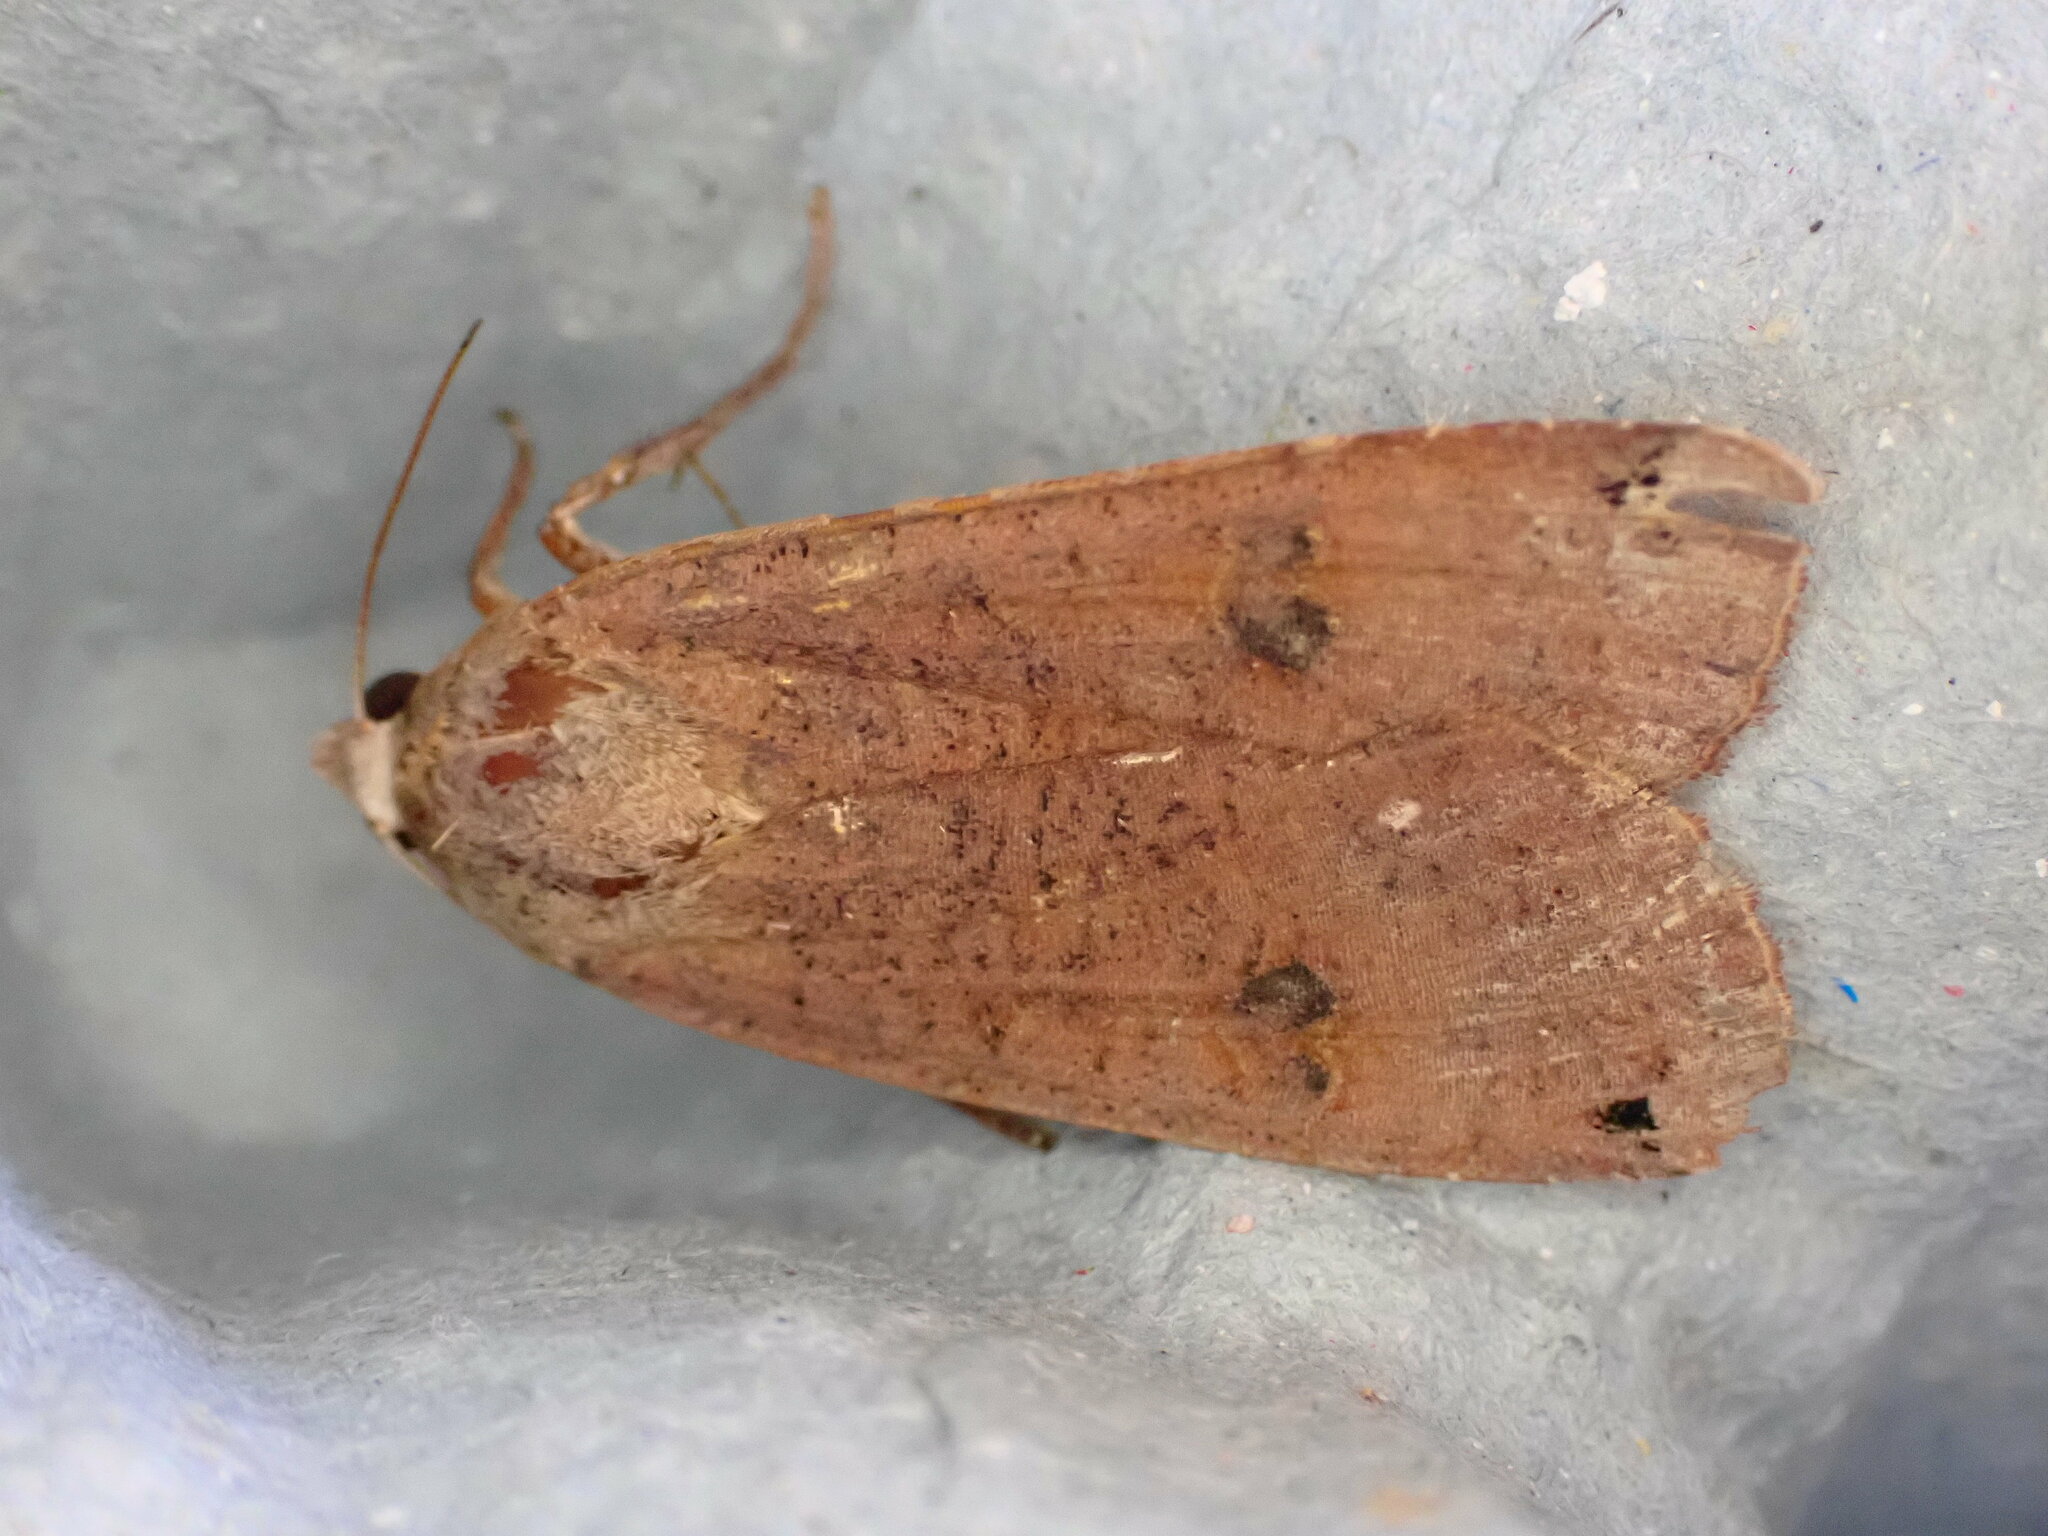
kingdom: Animalia
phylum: Arthropoda
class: Insecta
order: Lepidoptera
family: Noctuidae
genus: Noctua
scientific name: Noctua pronuba
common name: Large yellow underwing
